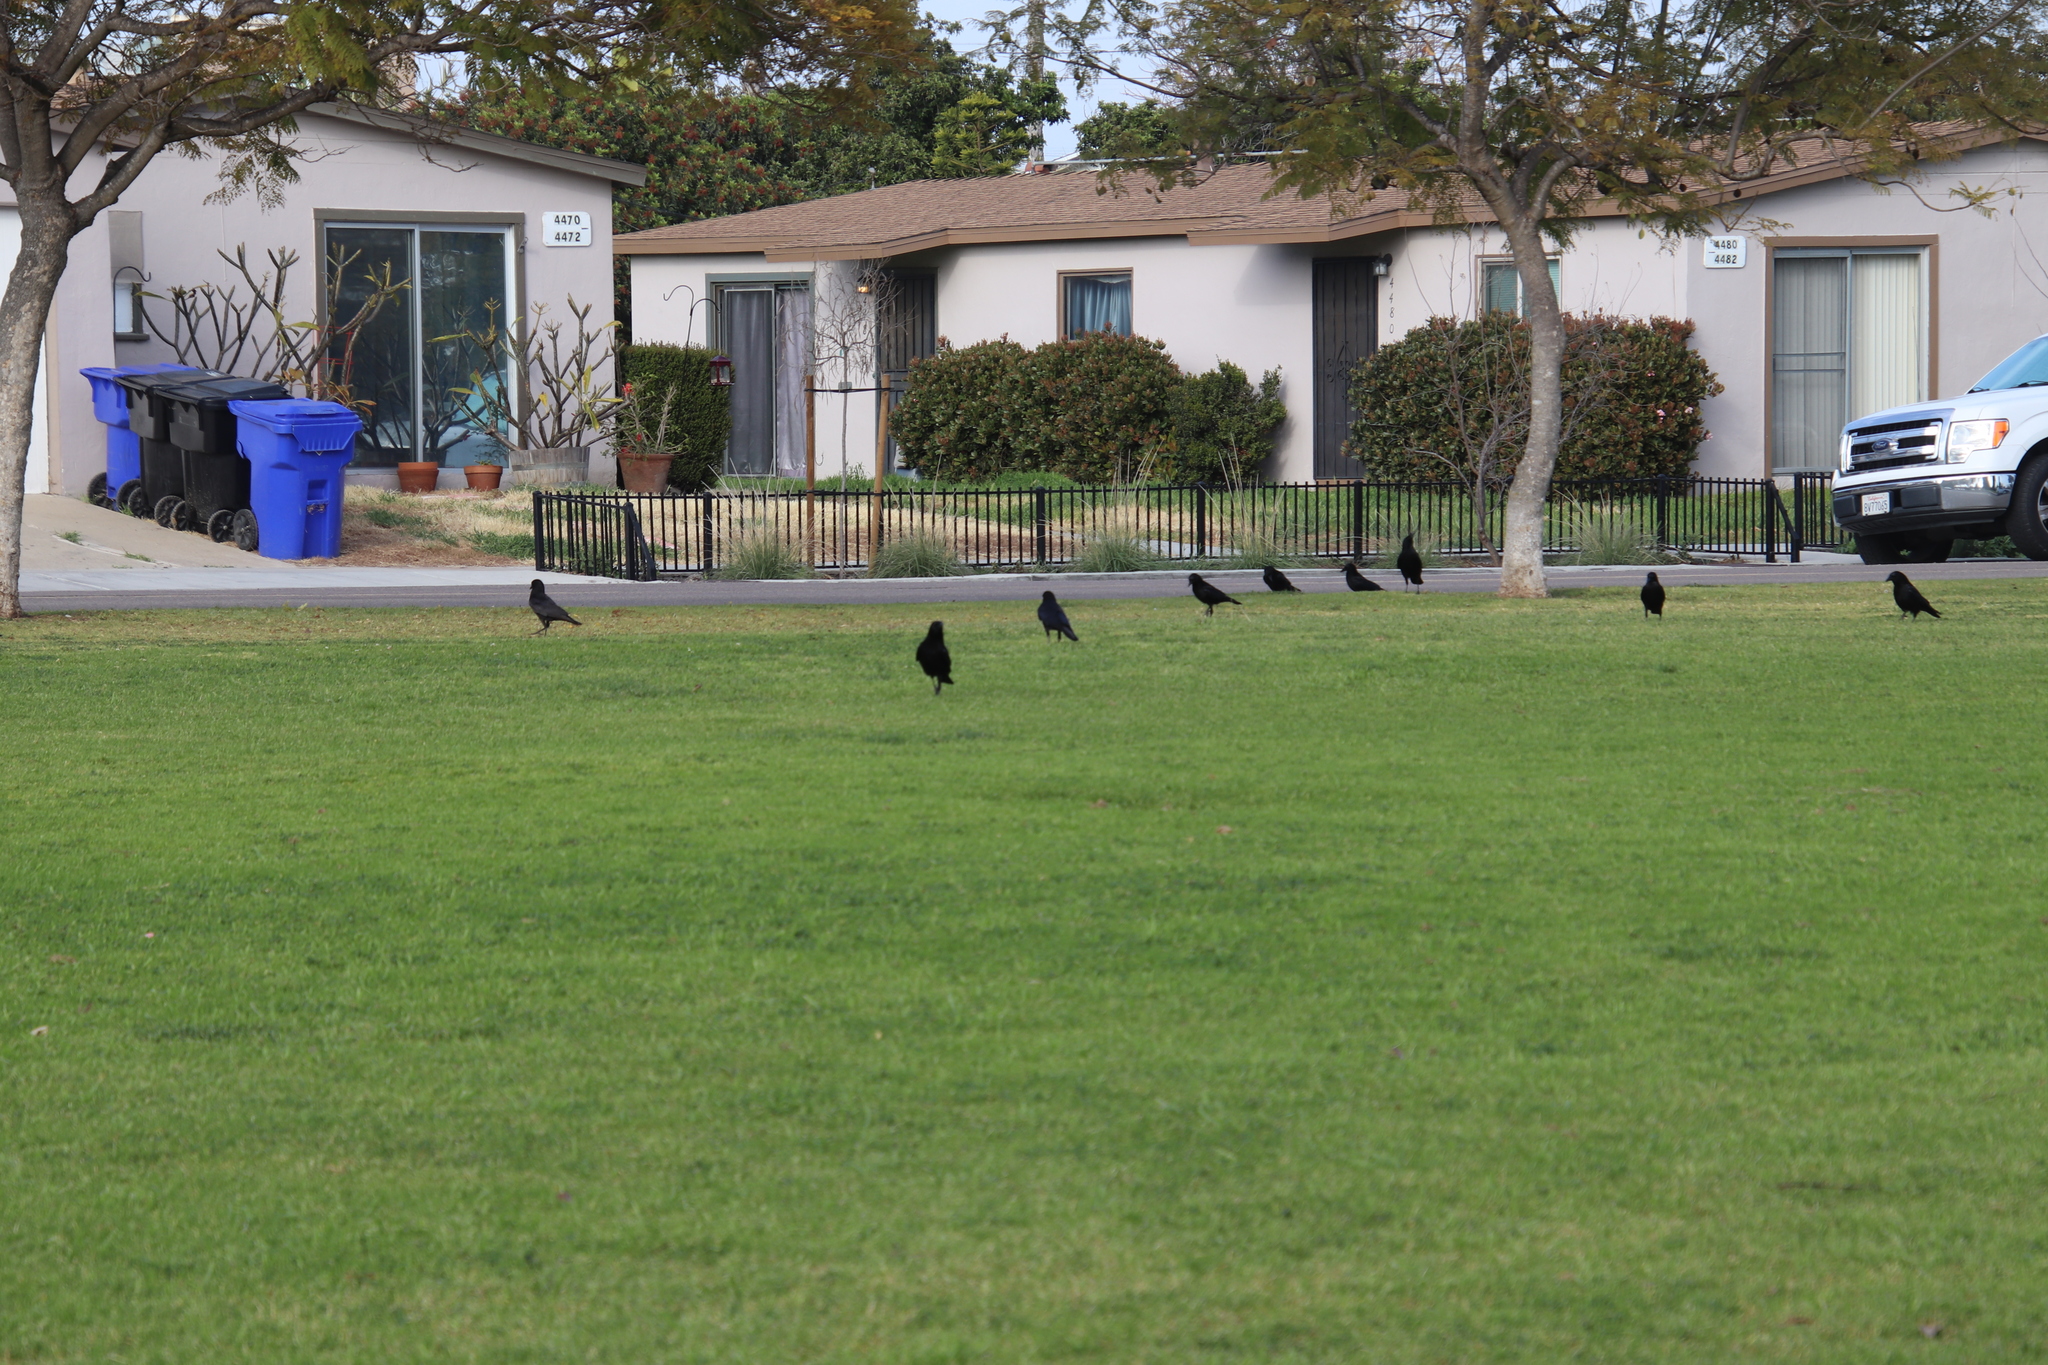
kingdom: Animalia
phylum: Chordata
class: Aves
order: Passeriformes
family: Corvidae
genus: Corvus
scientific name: Corvus brachyrhynchos
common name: American crow
